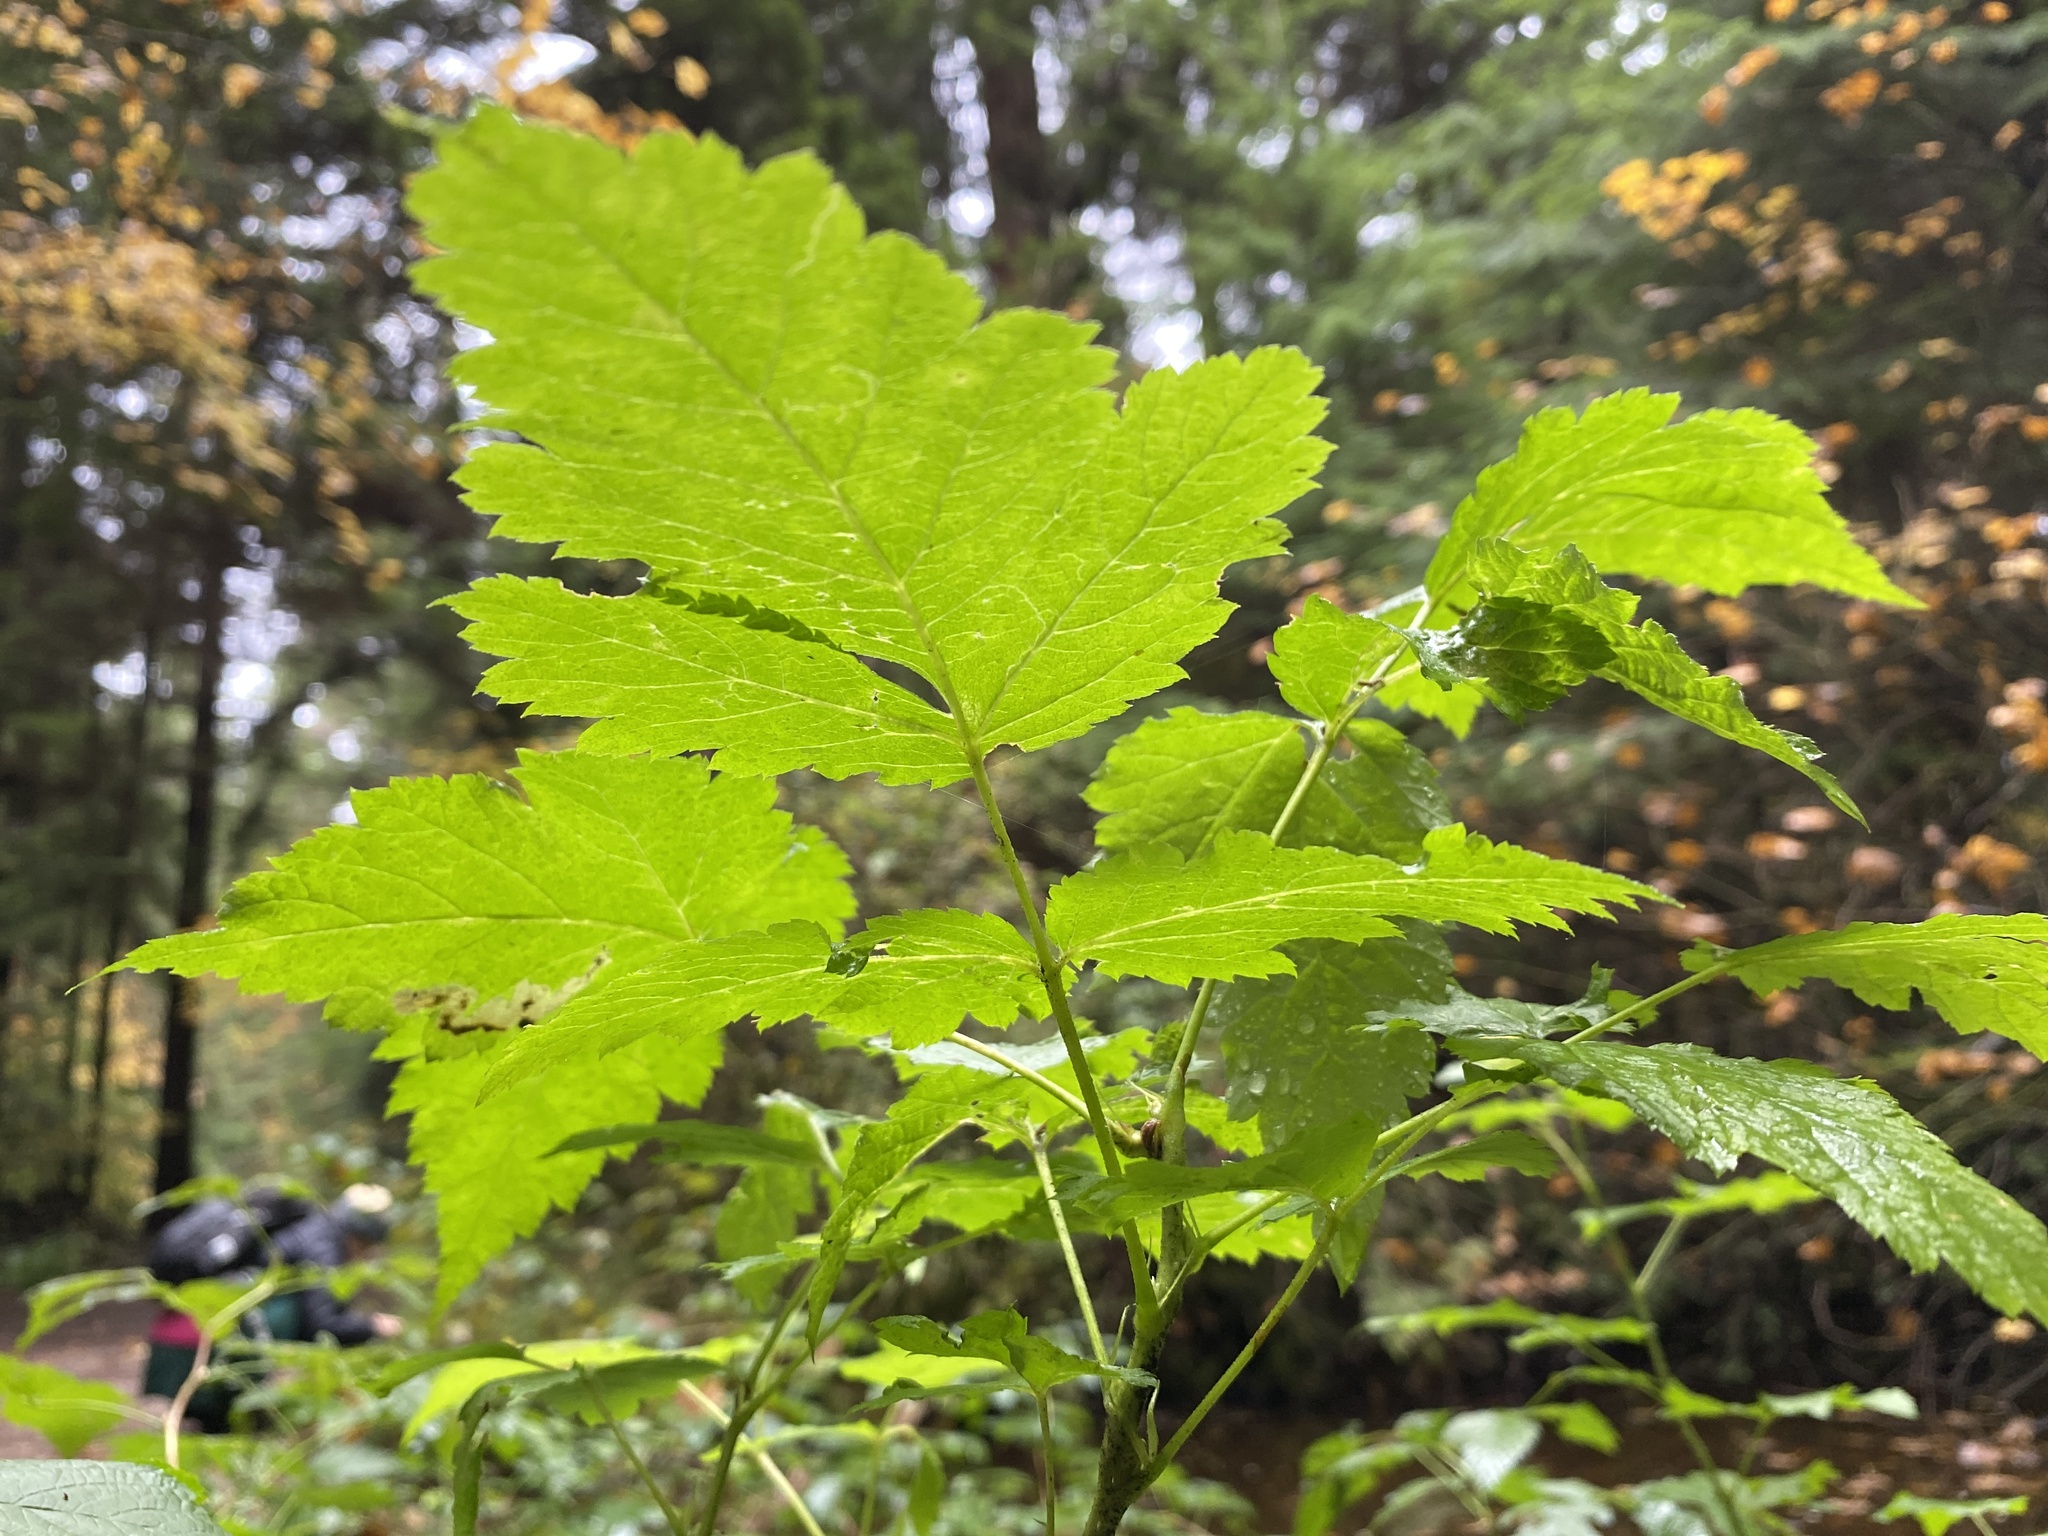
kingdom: Plantae
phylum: Tracheophyta
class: Magnoliopsida
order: Rosales
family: Rosaceae
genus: Rubus
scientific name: Rubus spectabilis
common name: Salmonberry
